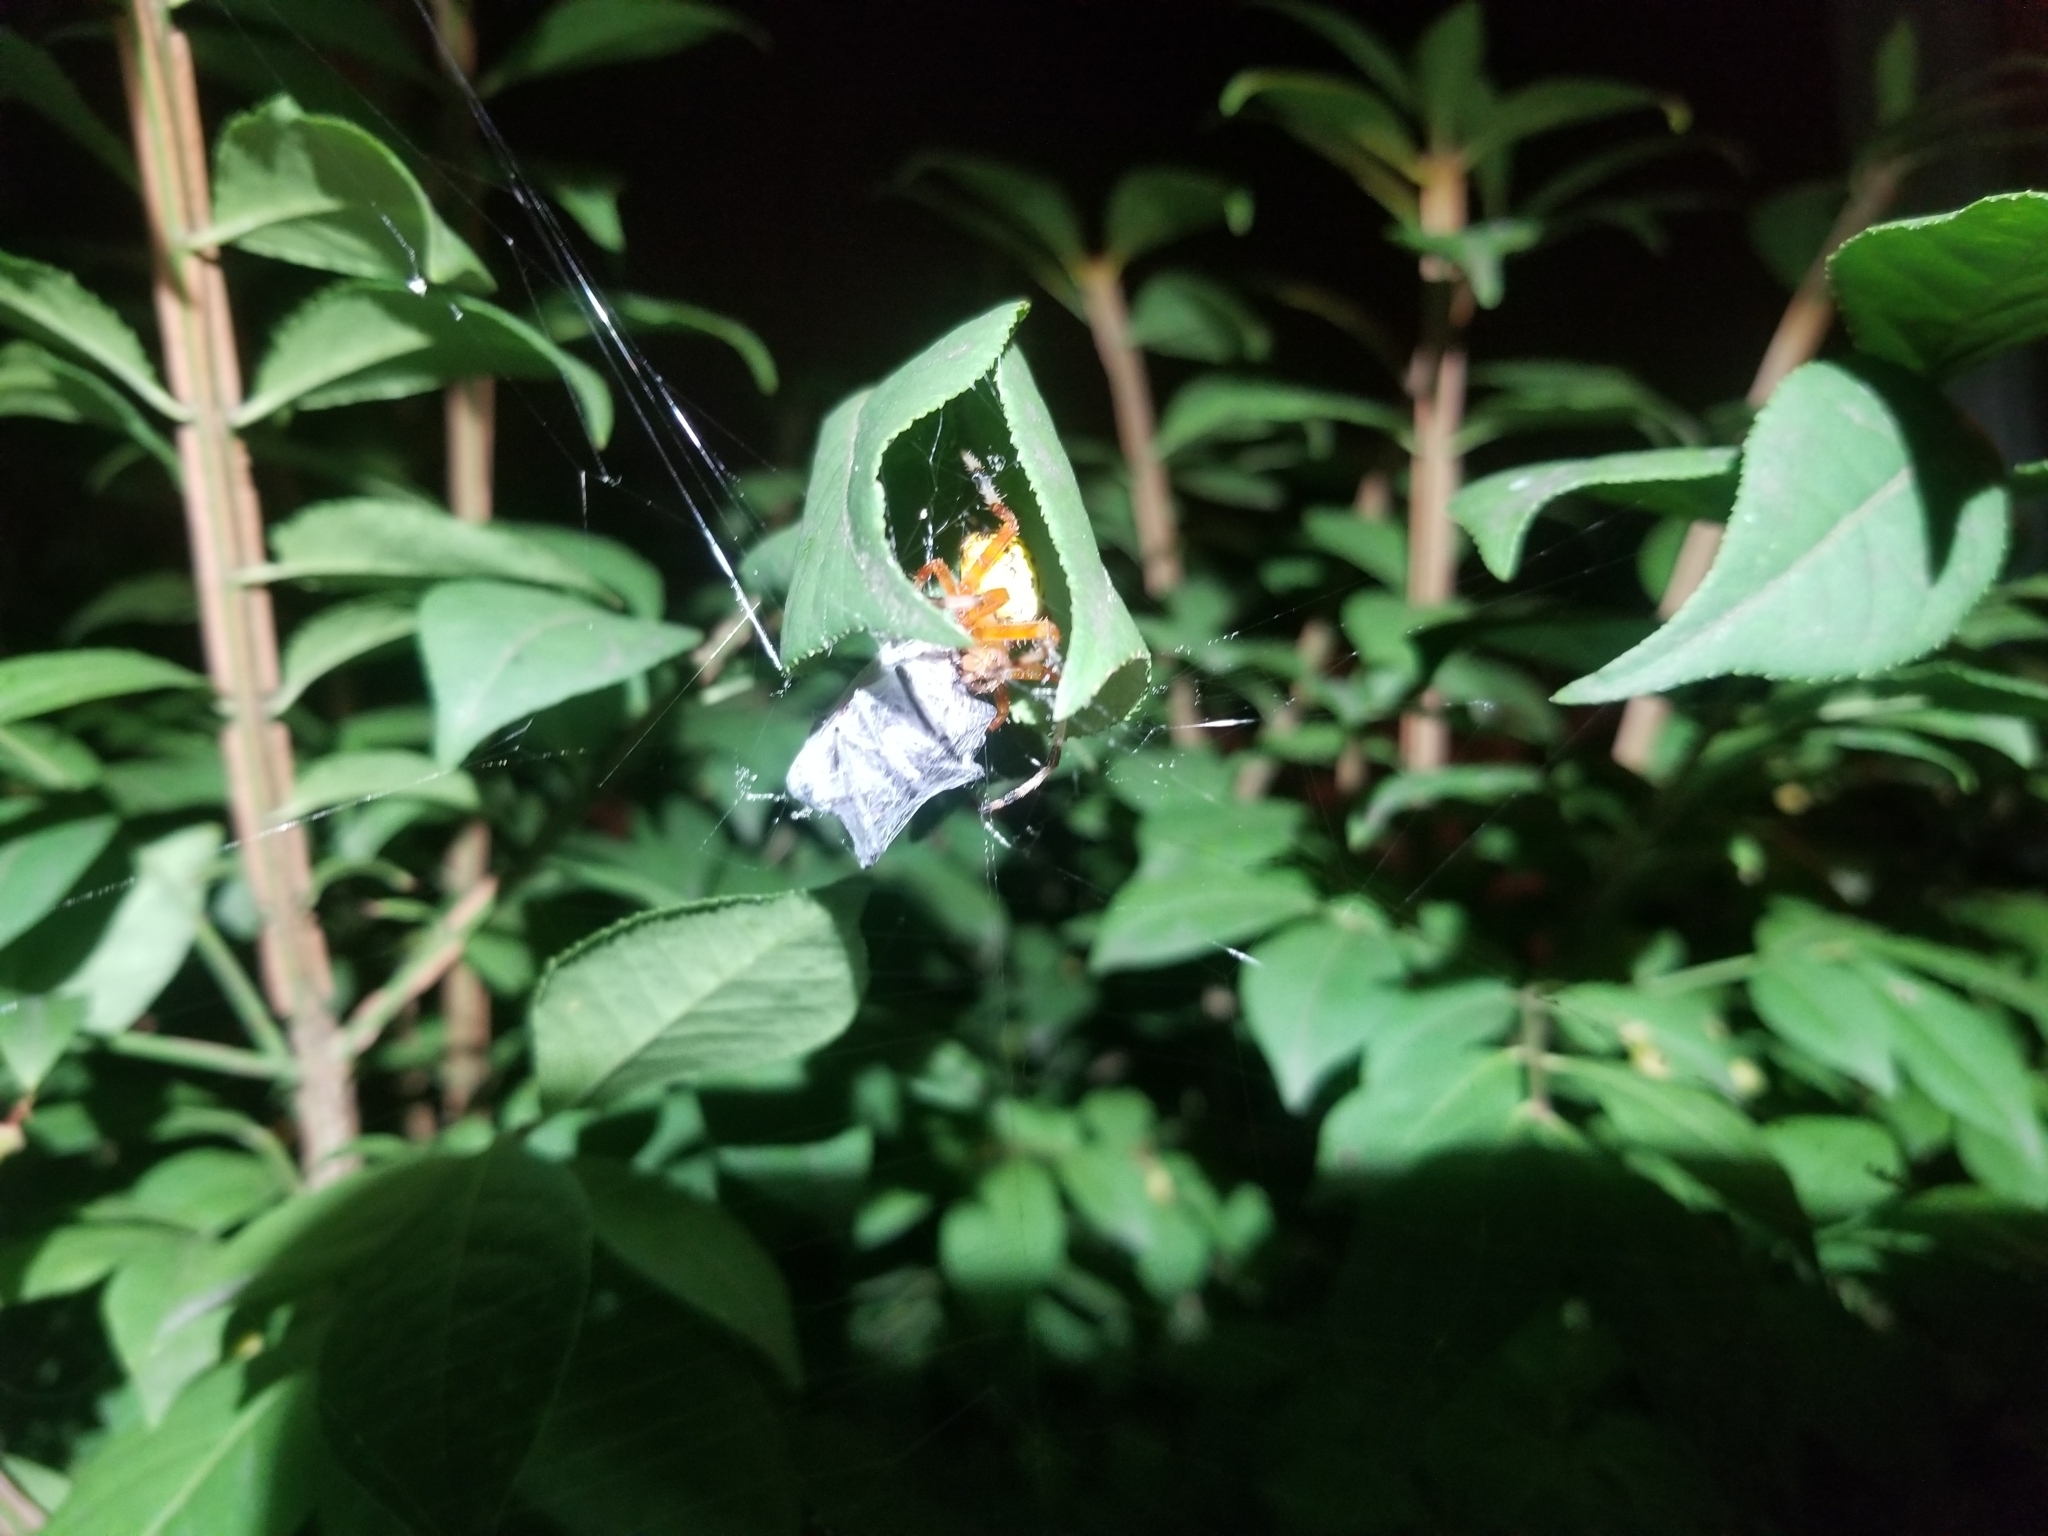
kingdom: Animalia
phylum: Arthropoda
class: Arachnida
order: Araneae
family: Araneidae
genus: Araneus
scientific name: Araneus marmoreus
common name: Marbled orbweaver
